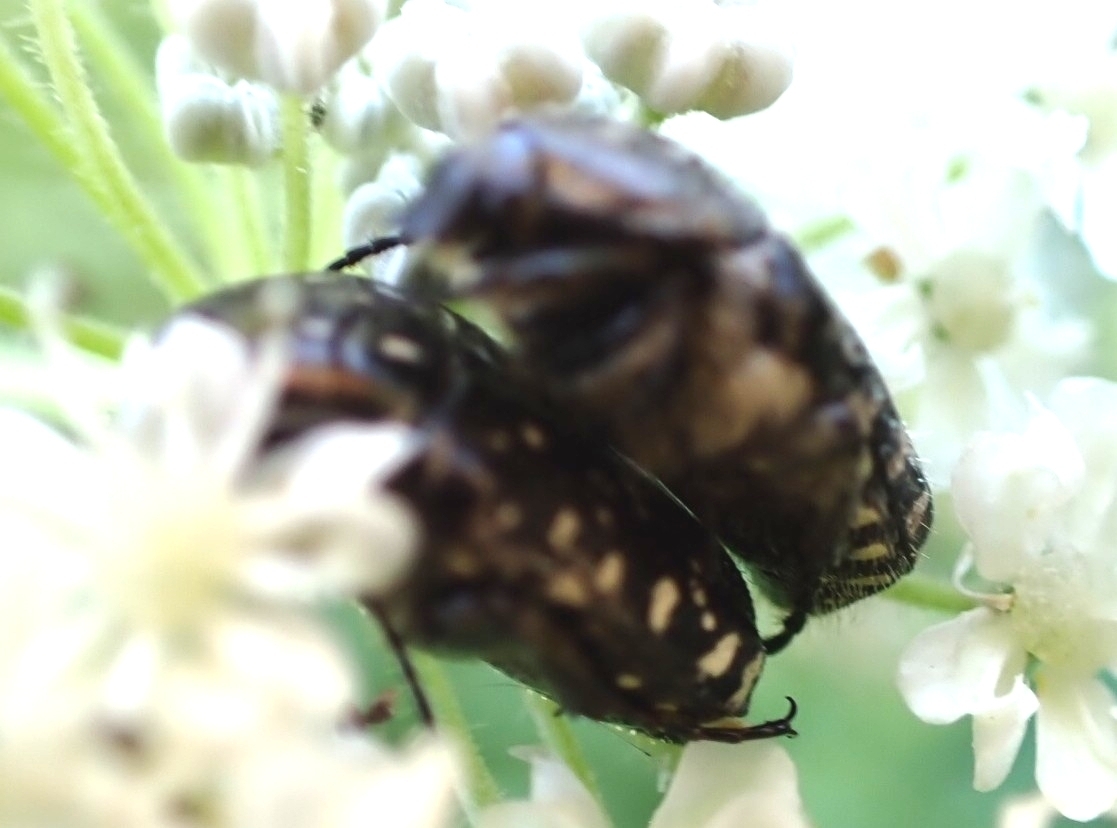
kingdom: Animalia
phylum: Arthropoda
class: Insecta
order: Coleoptera
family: Scarabaeidae
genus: Oxythyrea
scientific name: Oxythyrea funesta
